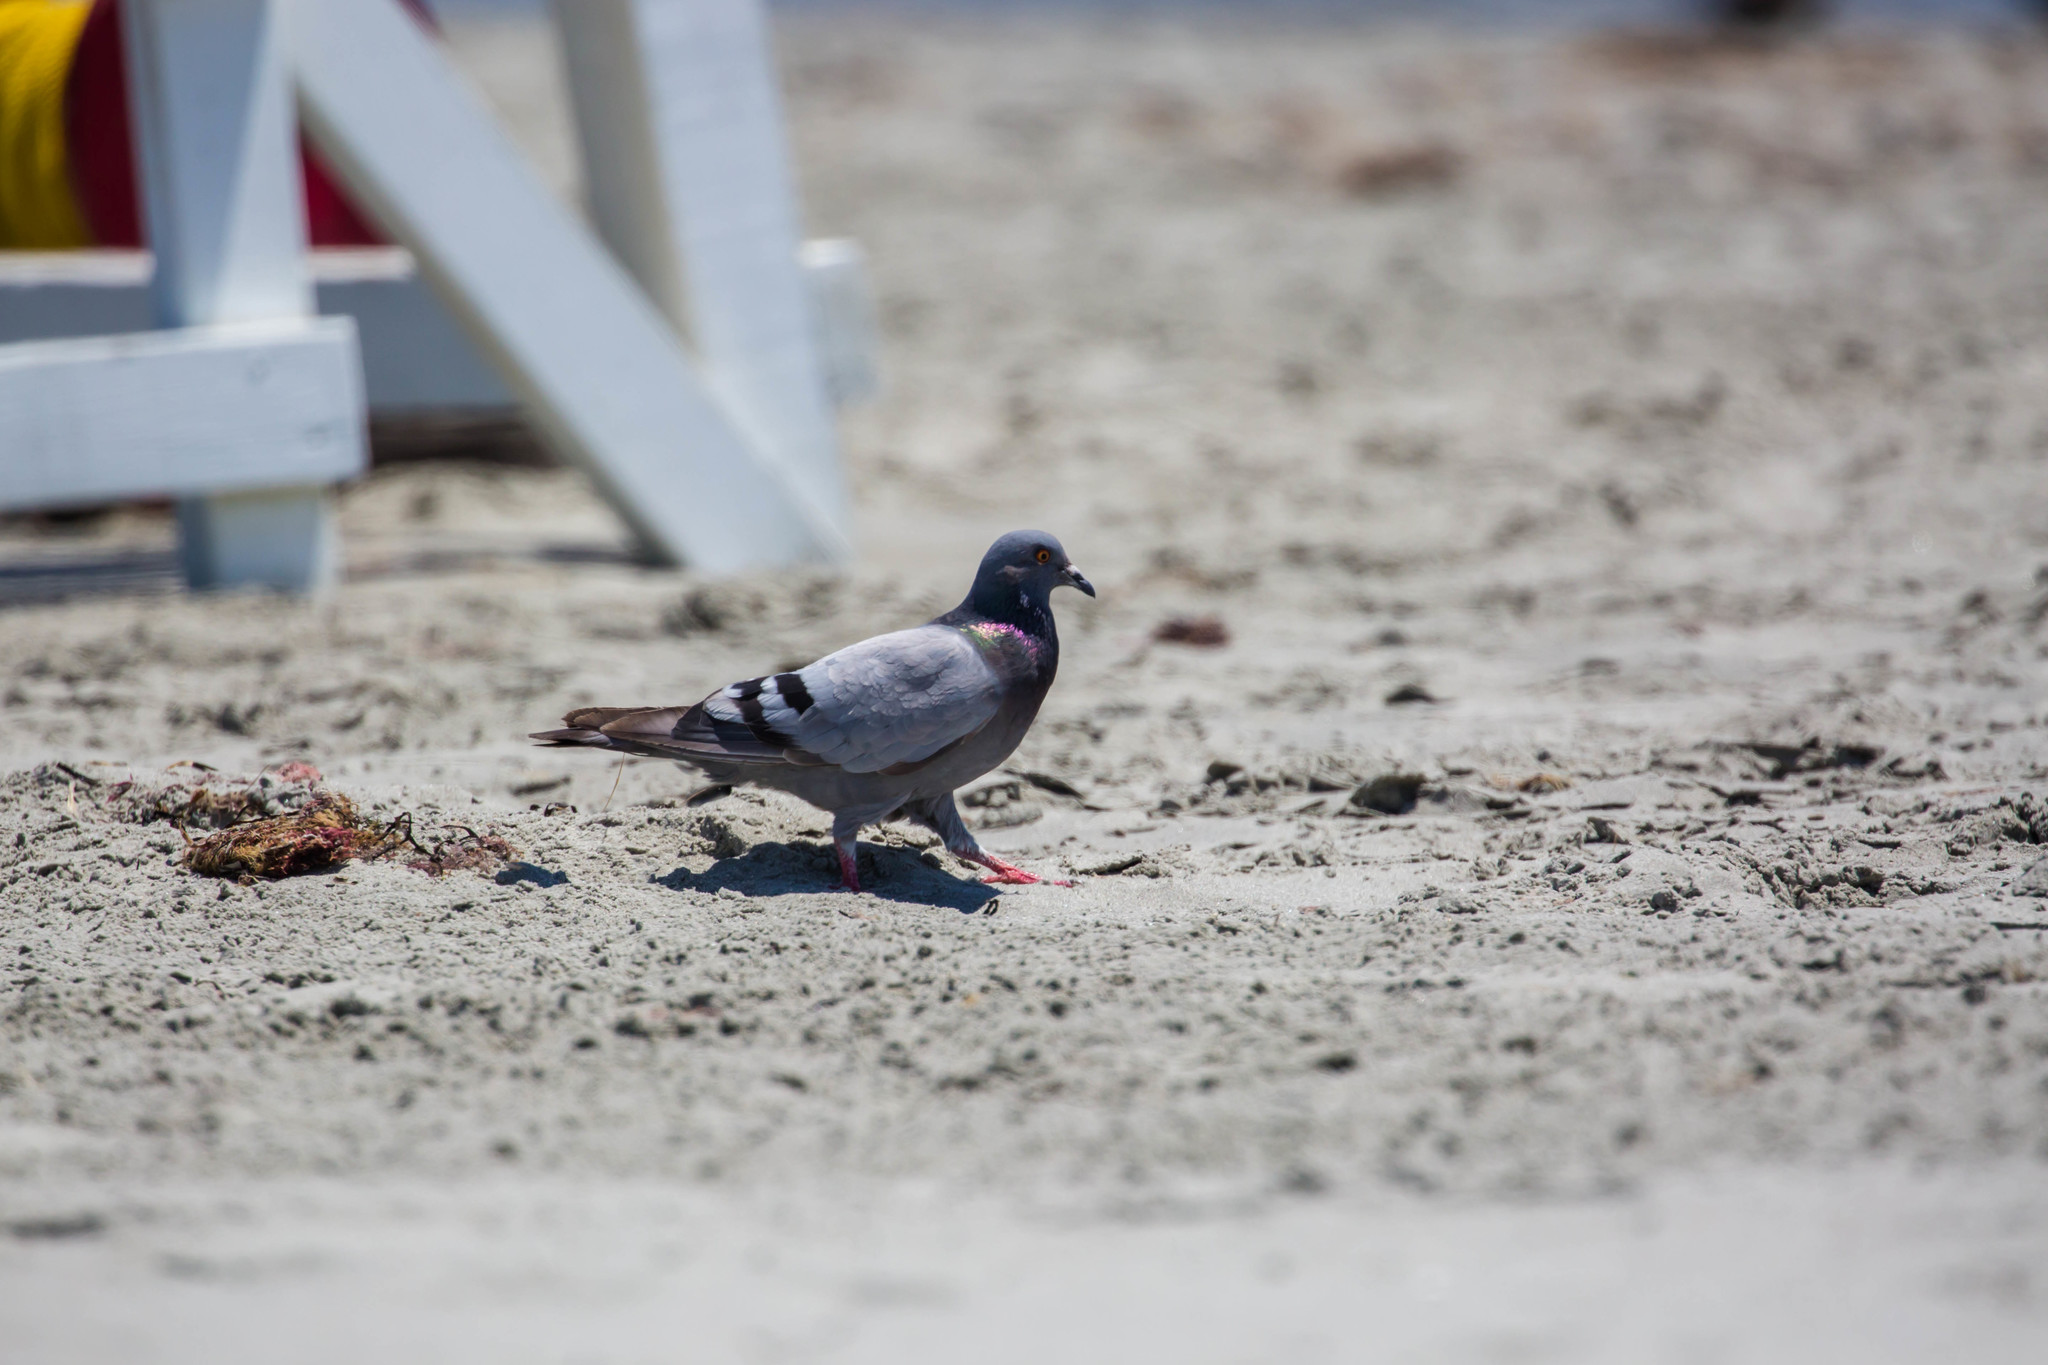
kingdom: Animalia
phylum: Chordata
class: Aves
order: Columbiformes
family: Columbidae
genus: Columba
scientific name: Columba livia
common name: Rock pigeon
